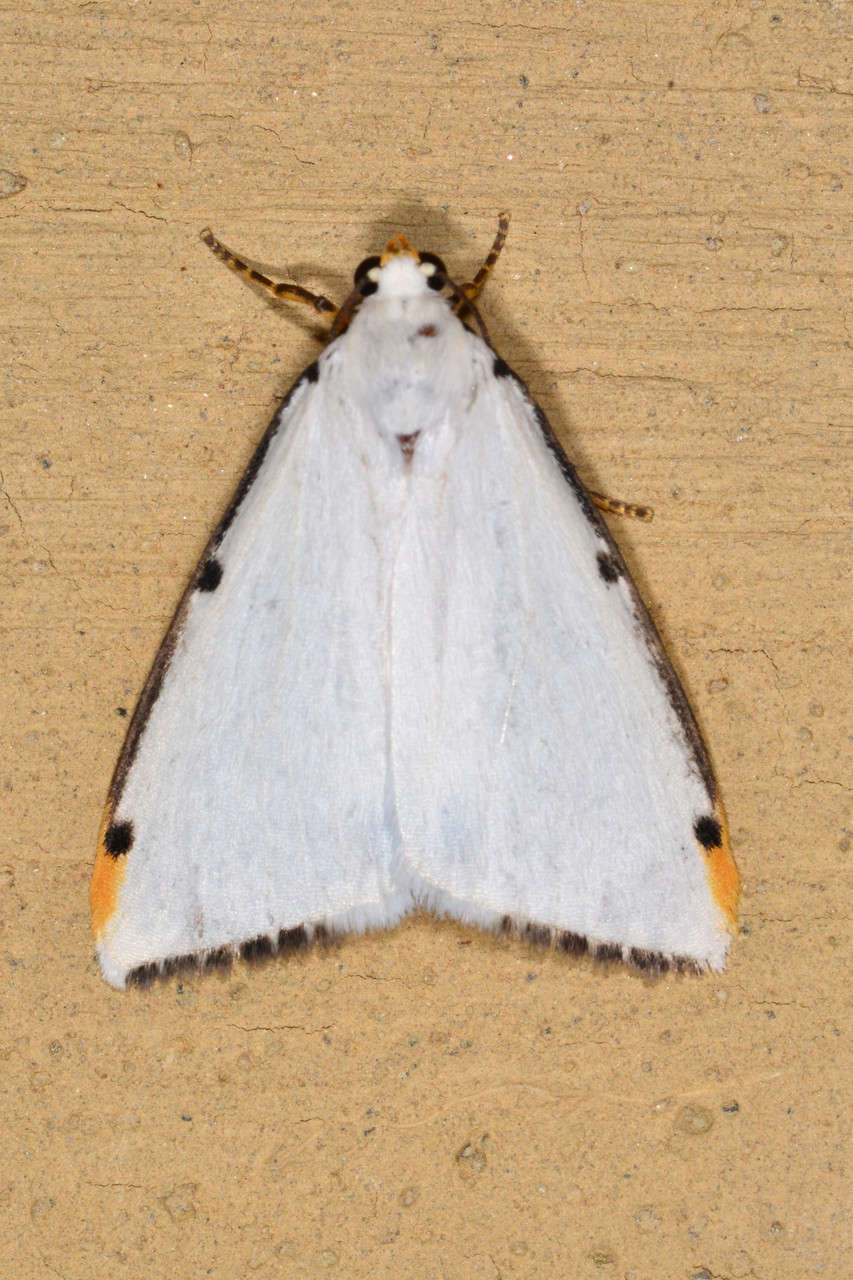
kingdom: Animalia
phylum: Arthropoda
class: Insecta
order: Lepidoptera
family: Erebidae
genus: Termessa
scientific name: Termessa nivosa
